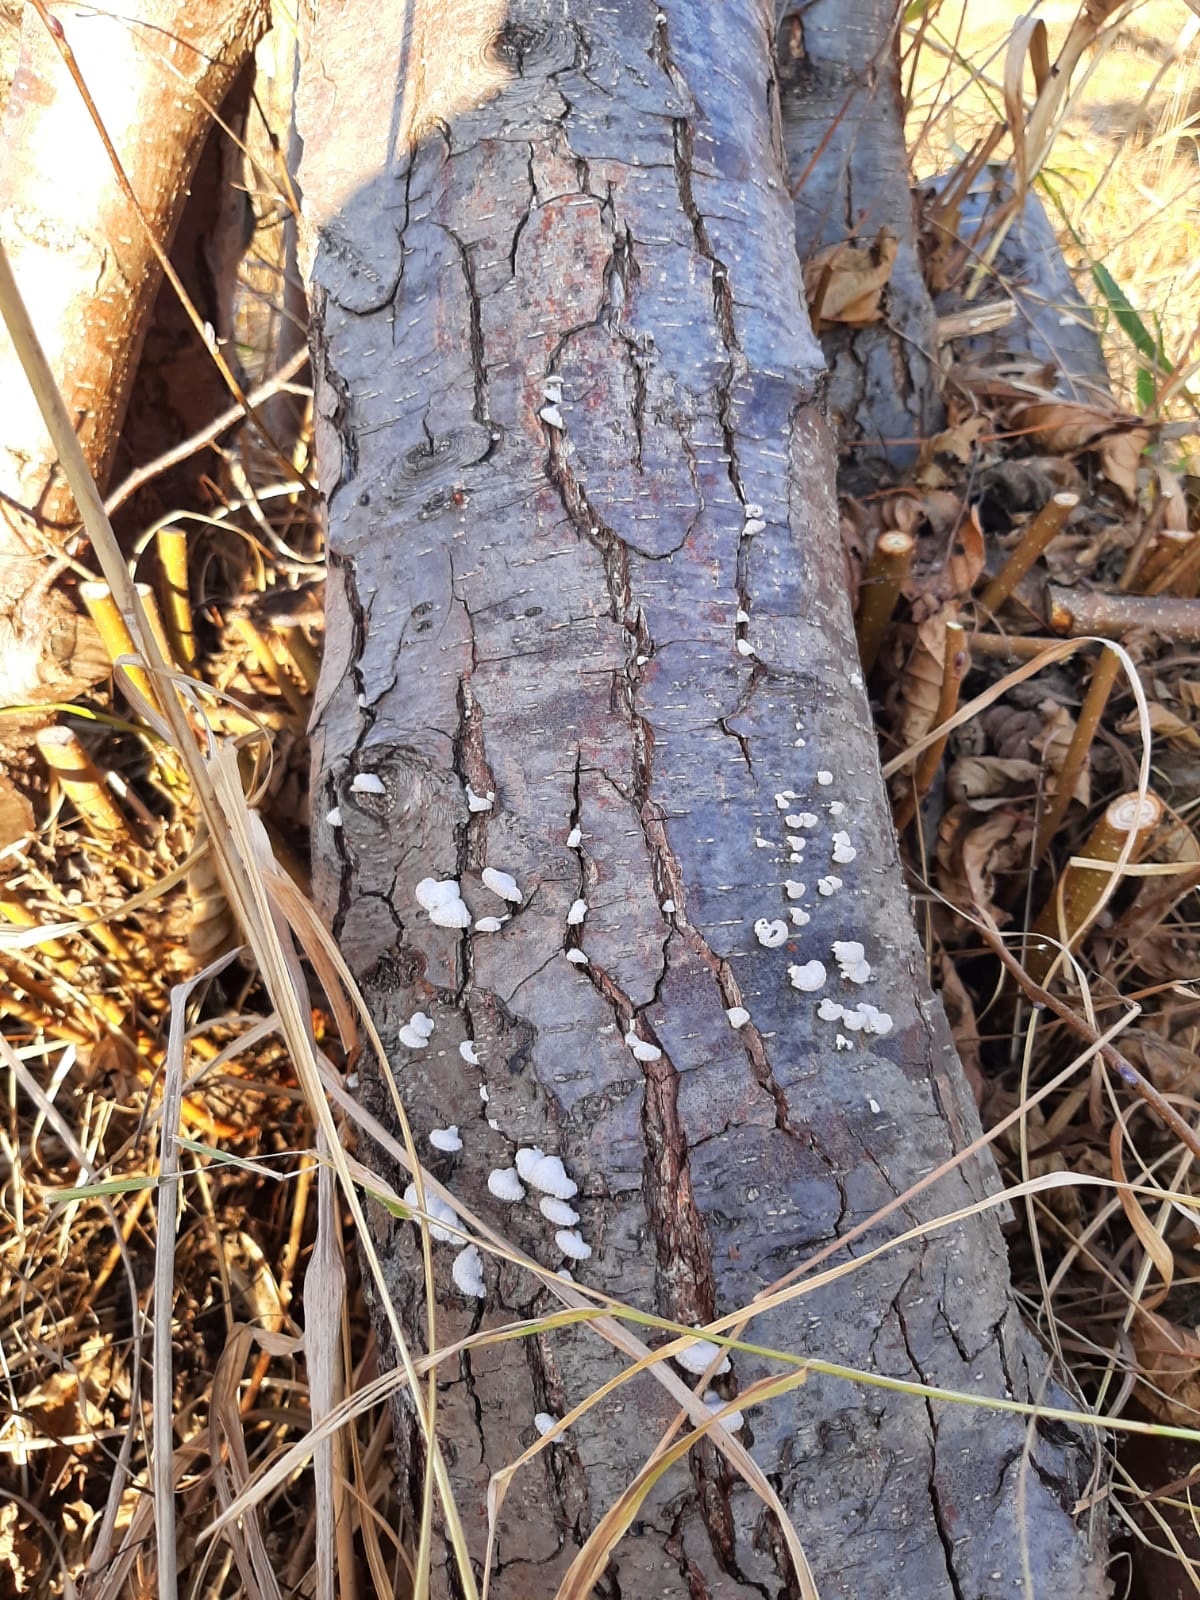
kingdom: Fungi
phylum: Basidiomycota
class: Agaricomycetes
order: Agaricales
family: Schizophyllaceae
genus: Schizophyllum
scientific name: Schizophyllum commune
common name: Common porecrust
